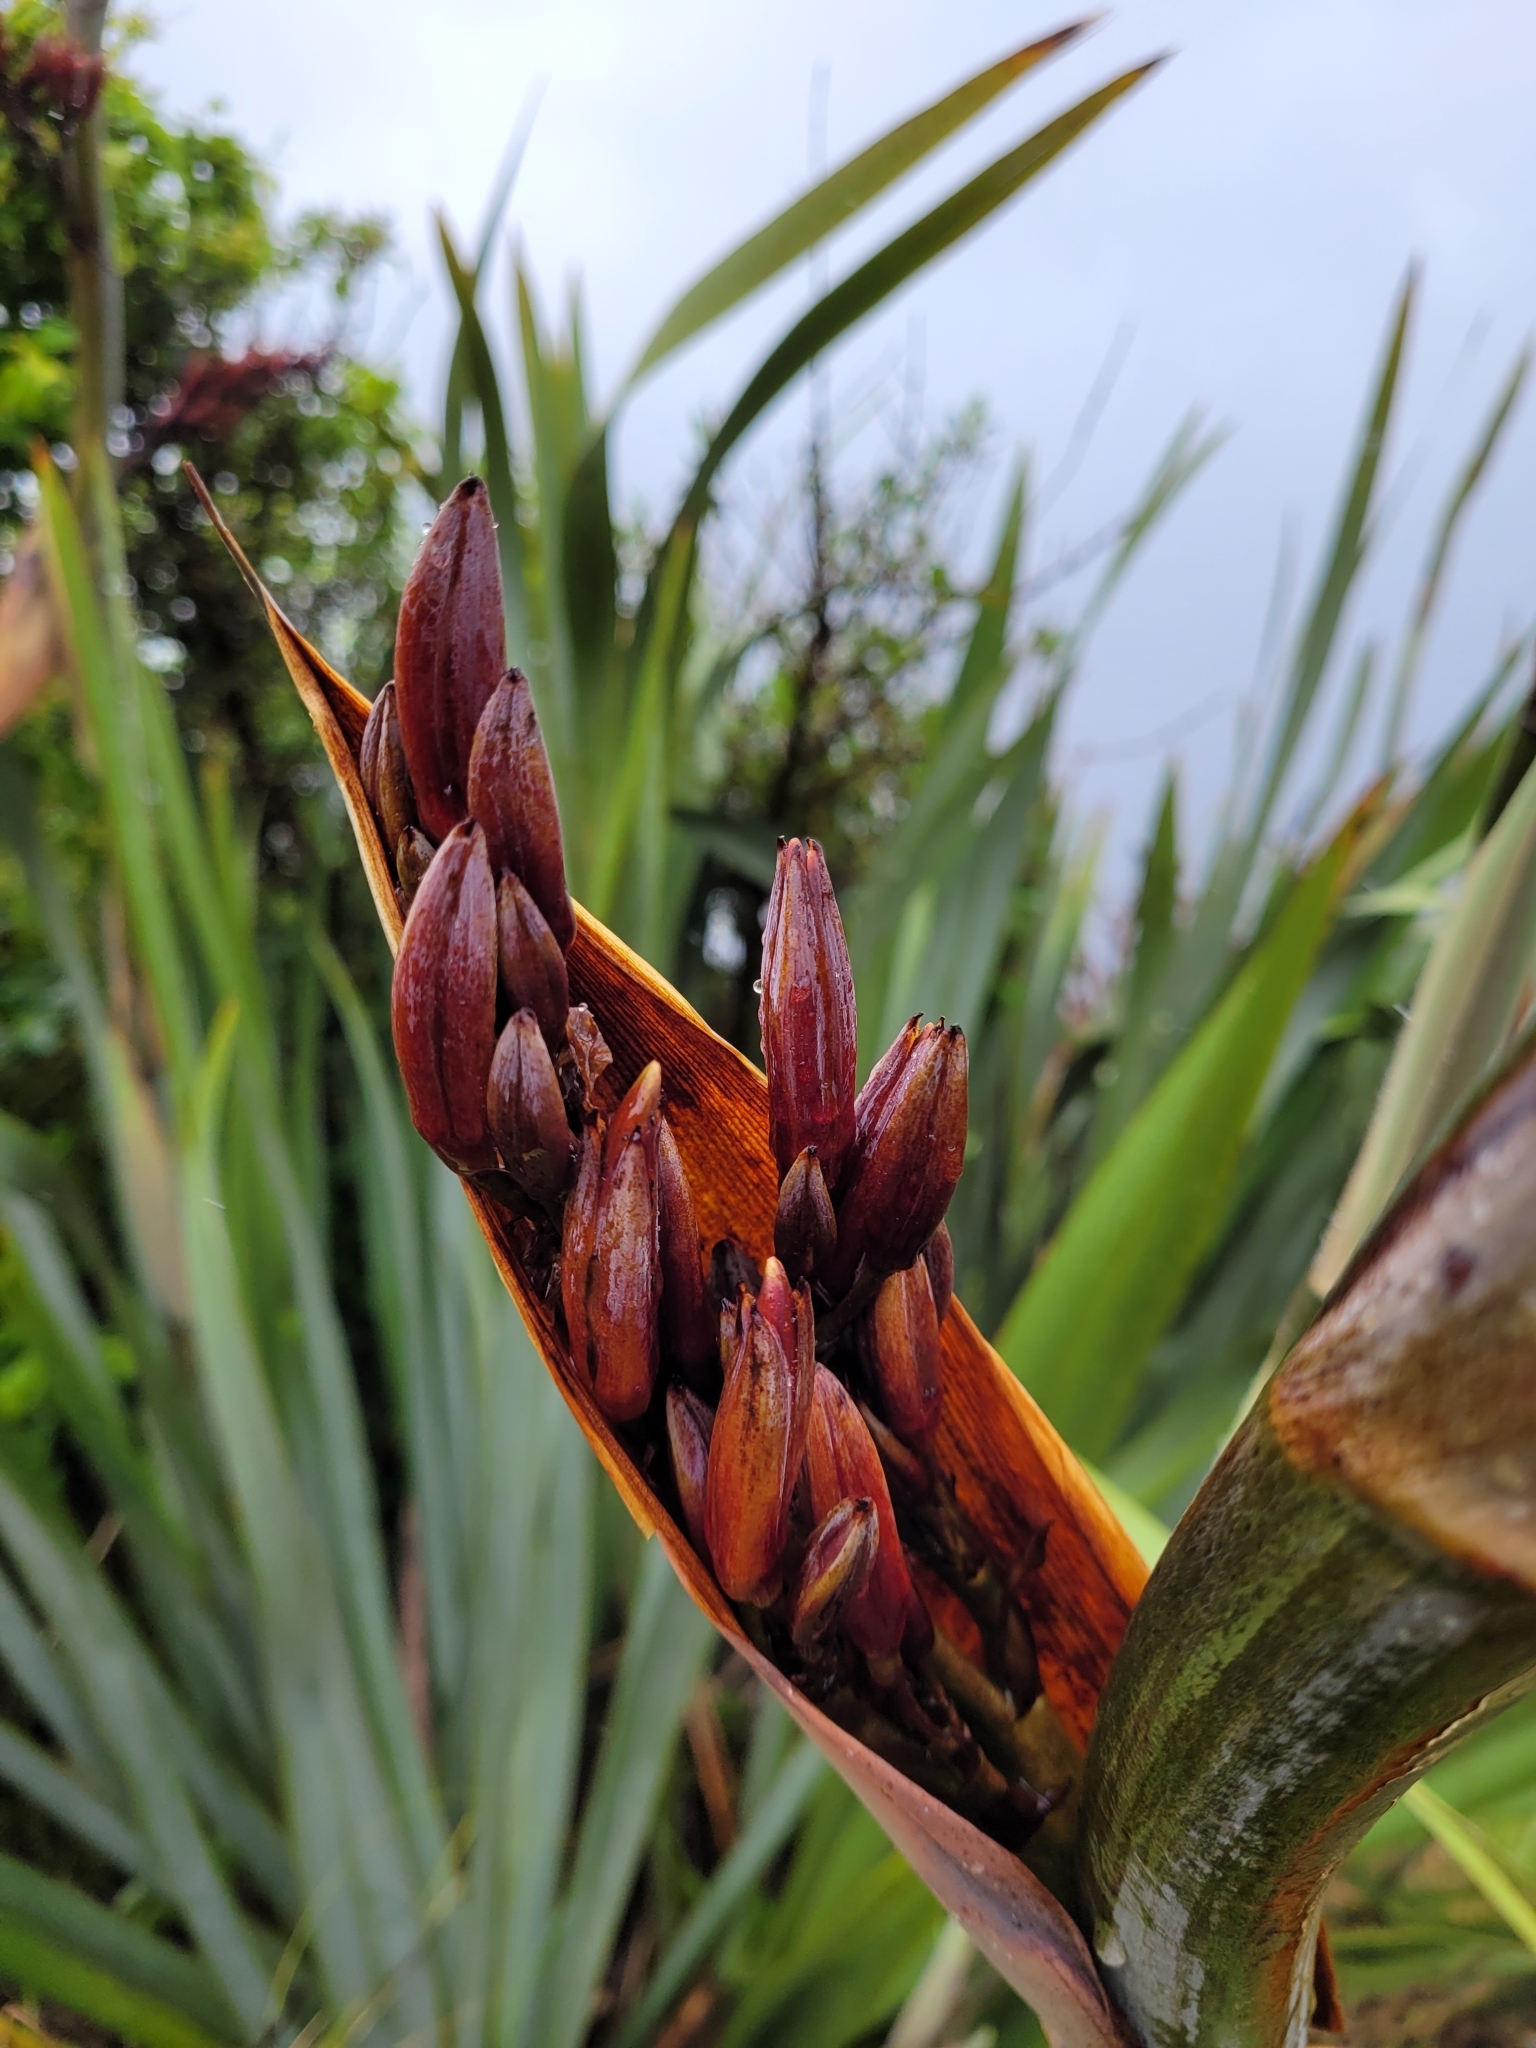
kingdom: Plantae
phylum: Tracheophyta
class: Liliopsida
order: Asparagales
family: Asphodelaceae
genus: Phormium
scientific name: Phormium tenax
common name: New zealand flax
